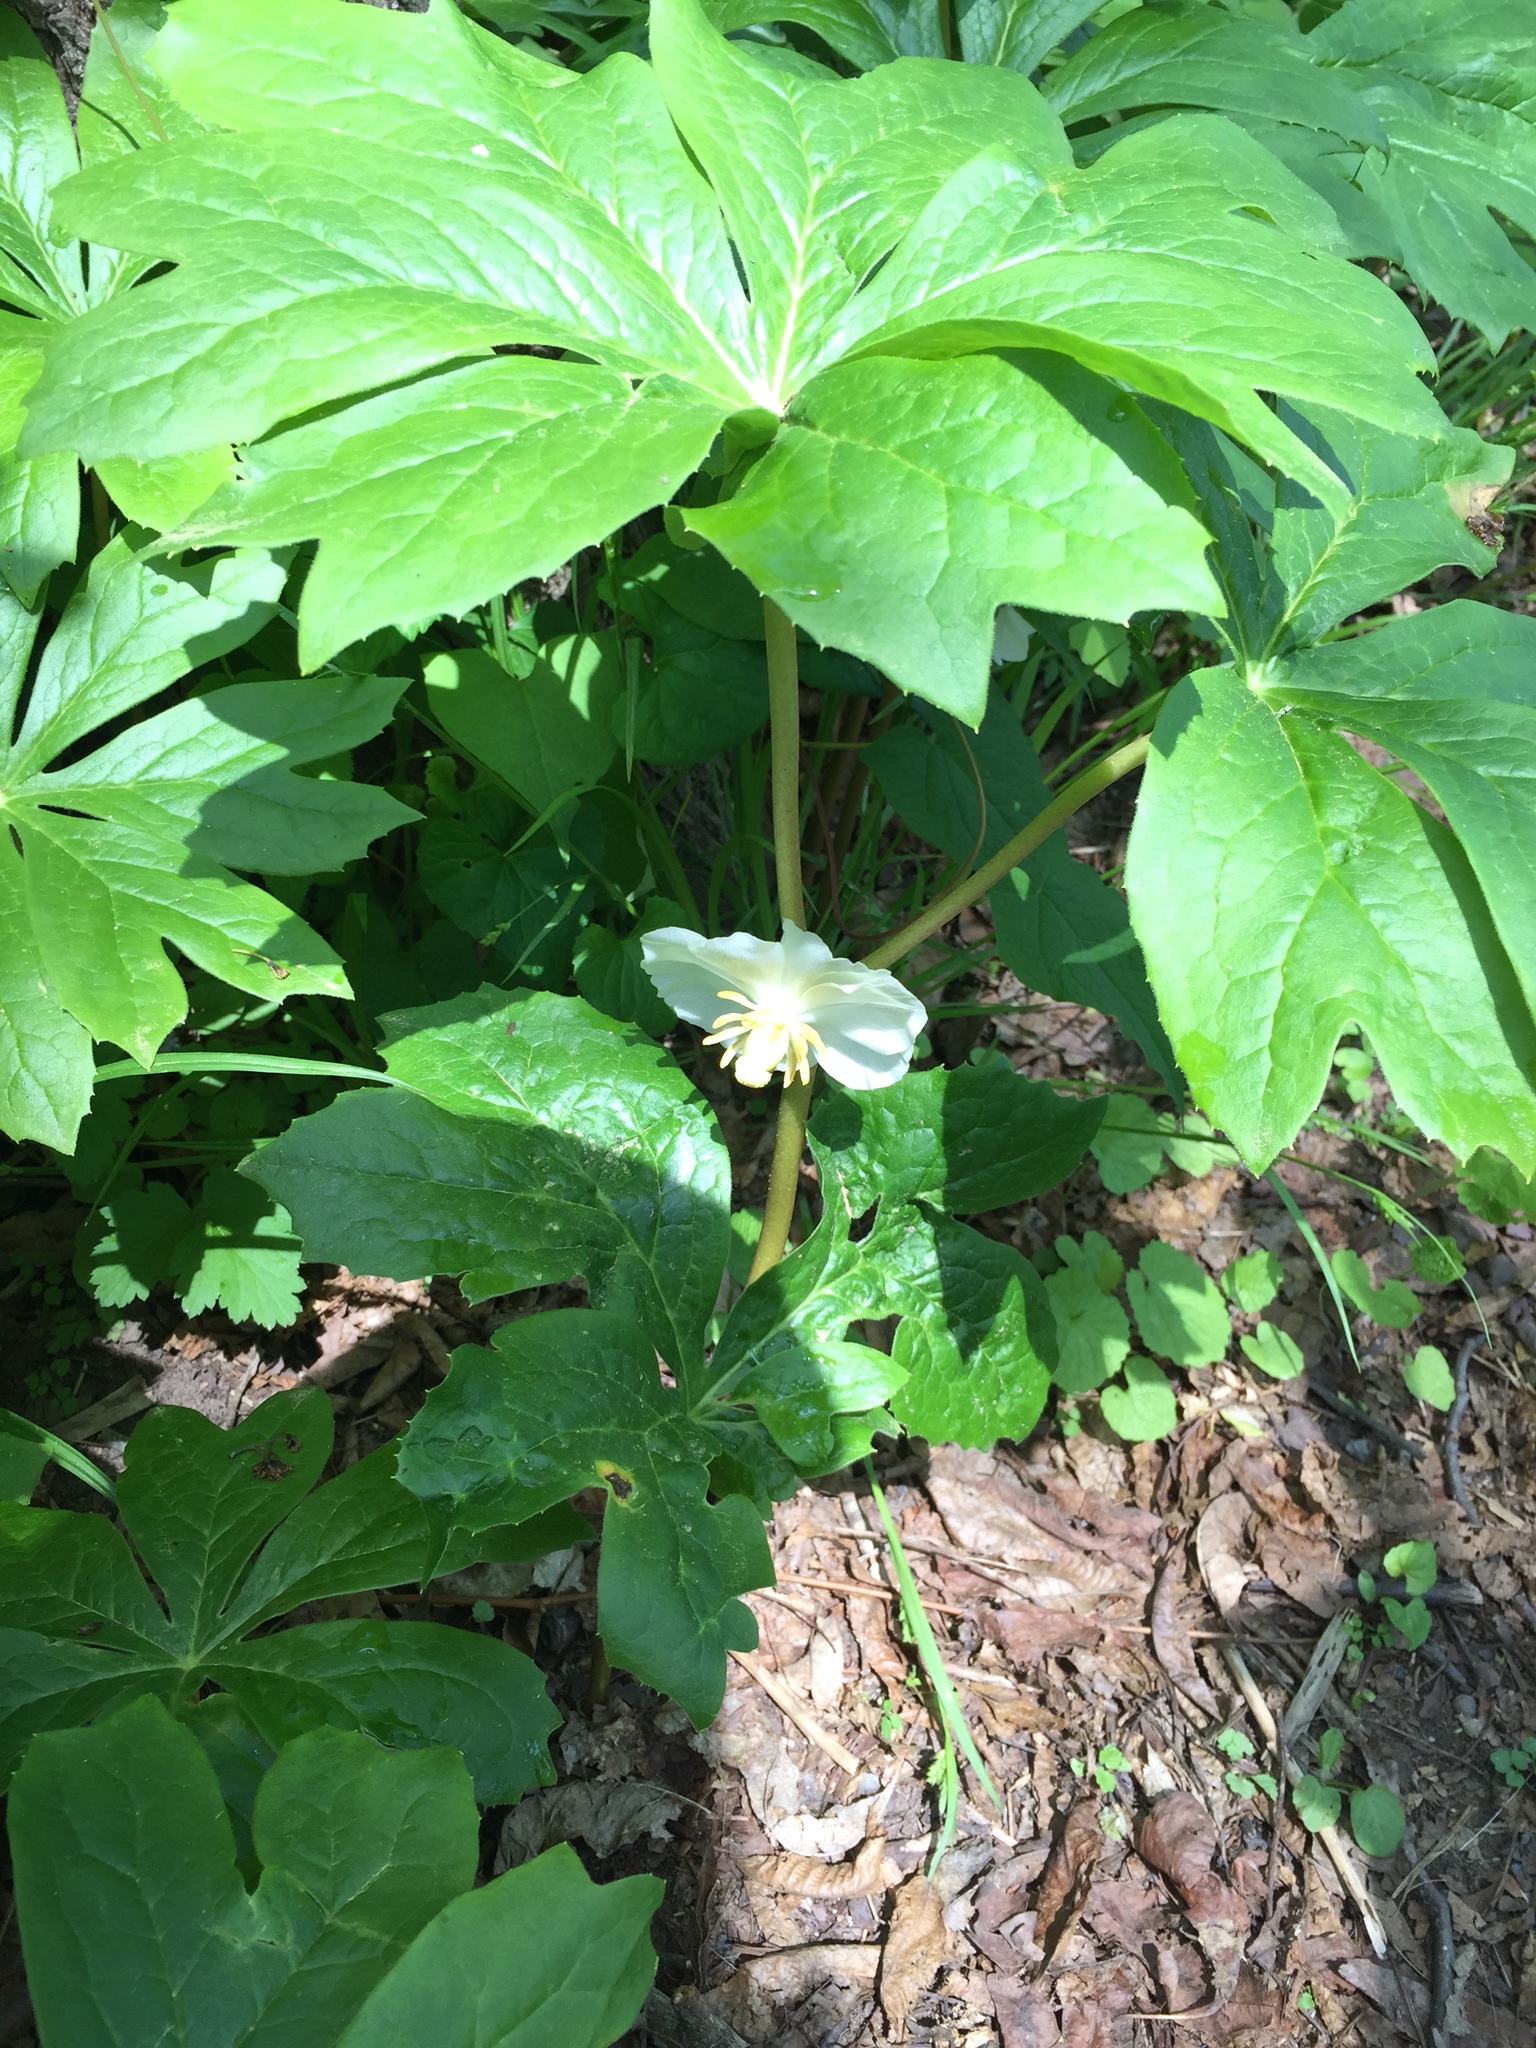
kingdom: Plantae
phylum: Tracheophyta
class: Magnoliopsida
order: Ranunculales
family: Berberidaceae
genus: Podophyllum
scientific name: Podophyllum peltatum
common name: Wild mandrake
